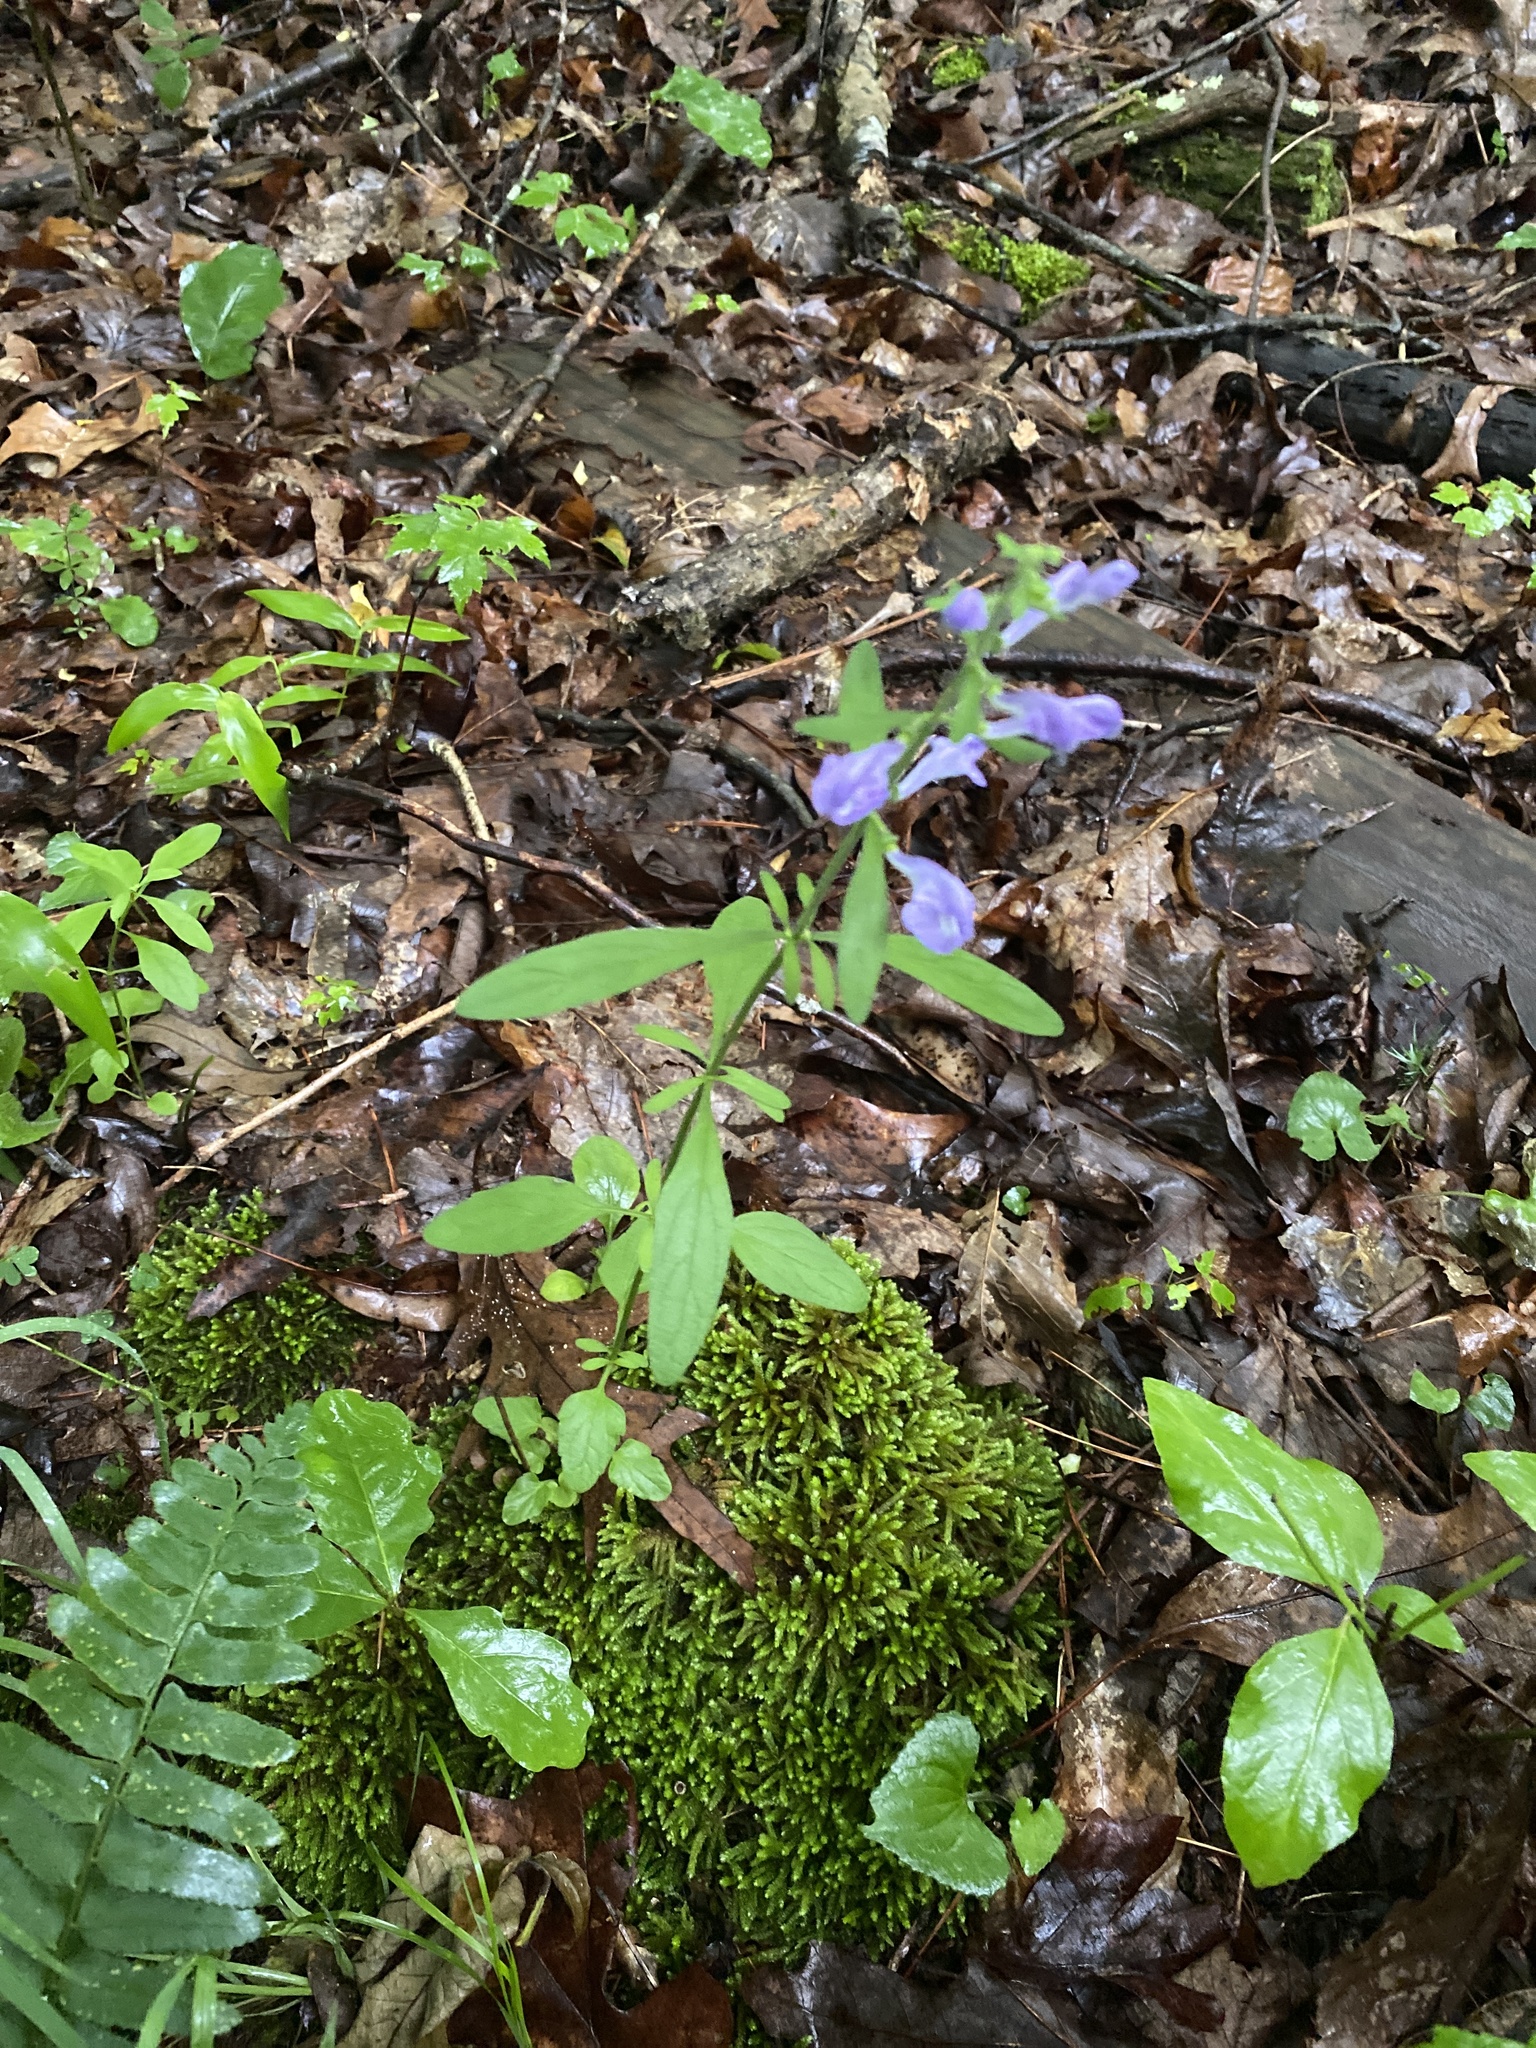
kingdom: Plantae
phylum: Tracheophyta
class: Magnoliopsida
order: Lamiales
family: Lamiaceae
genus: Scutellaria
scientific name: Scutellaria integrifolia
